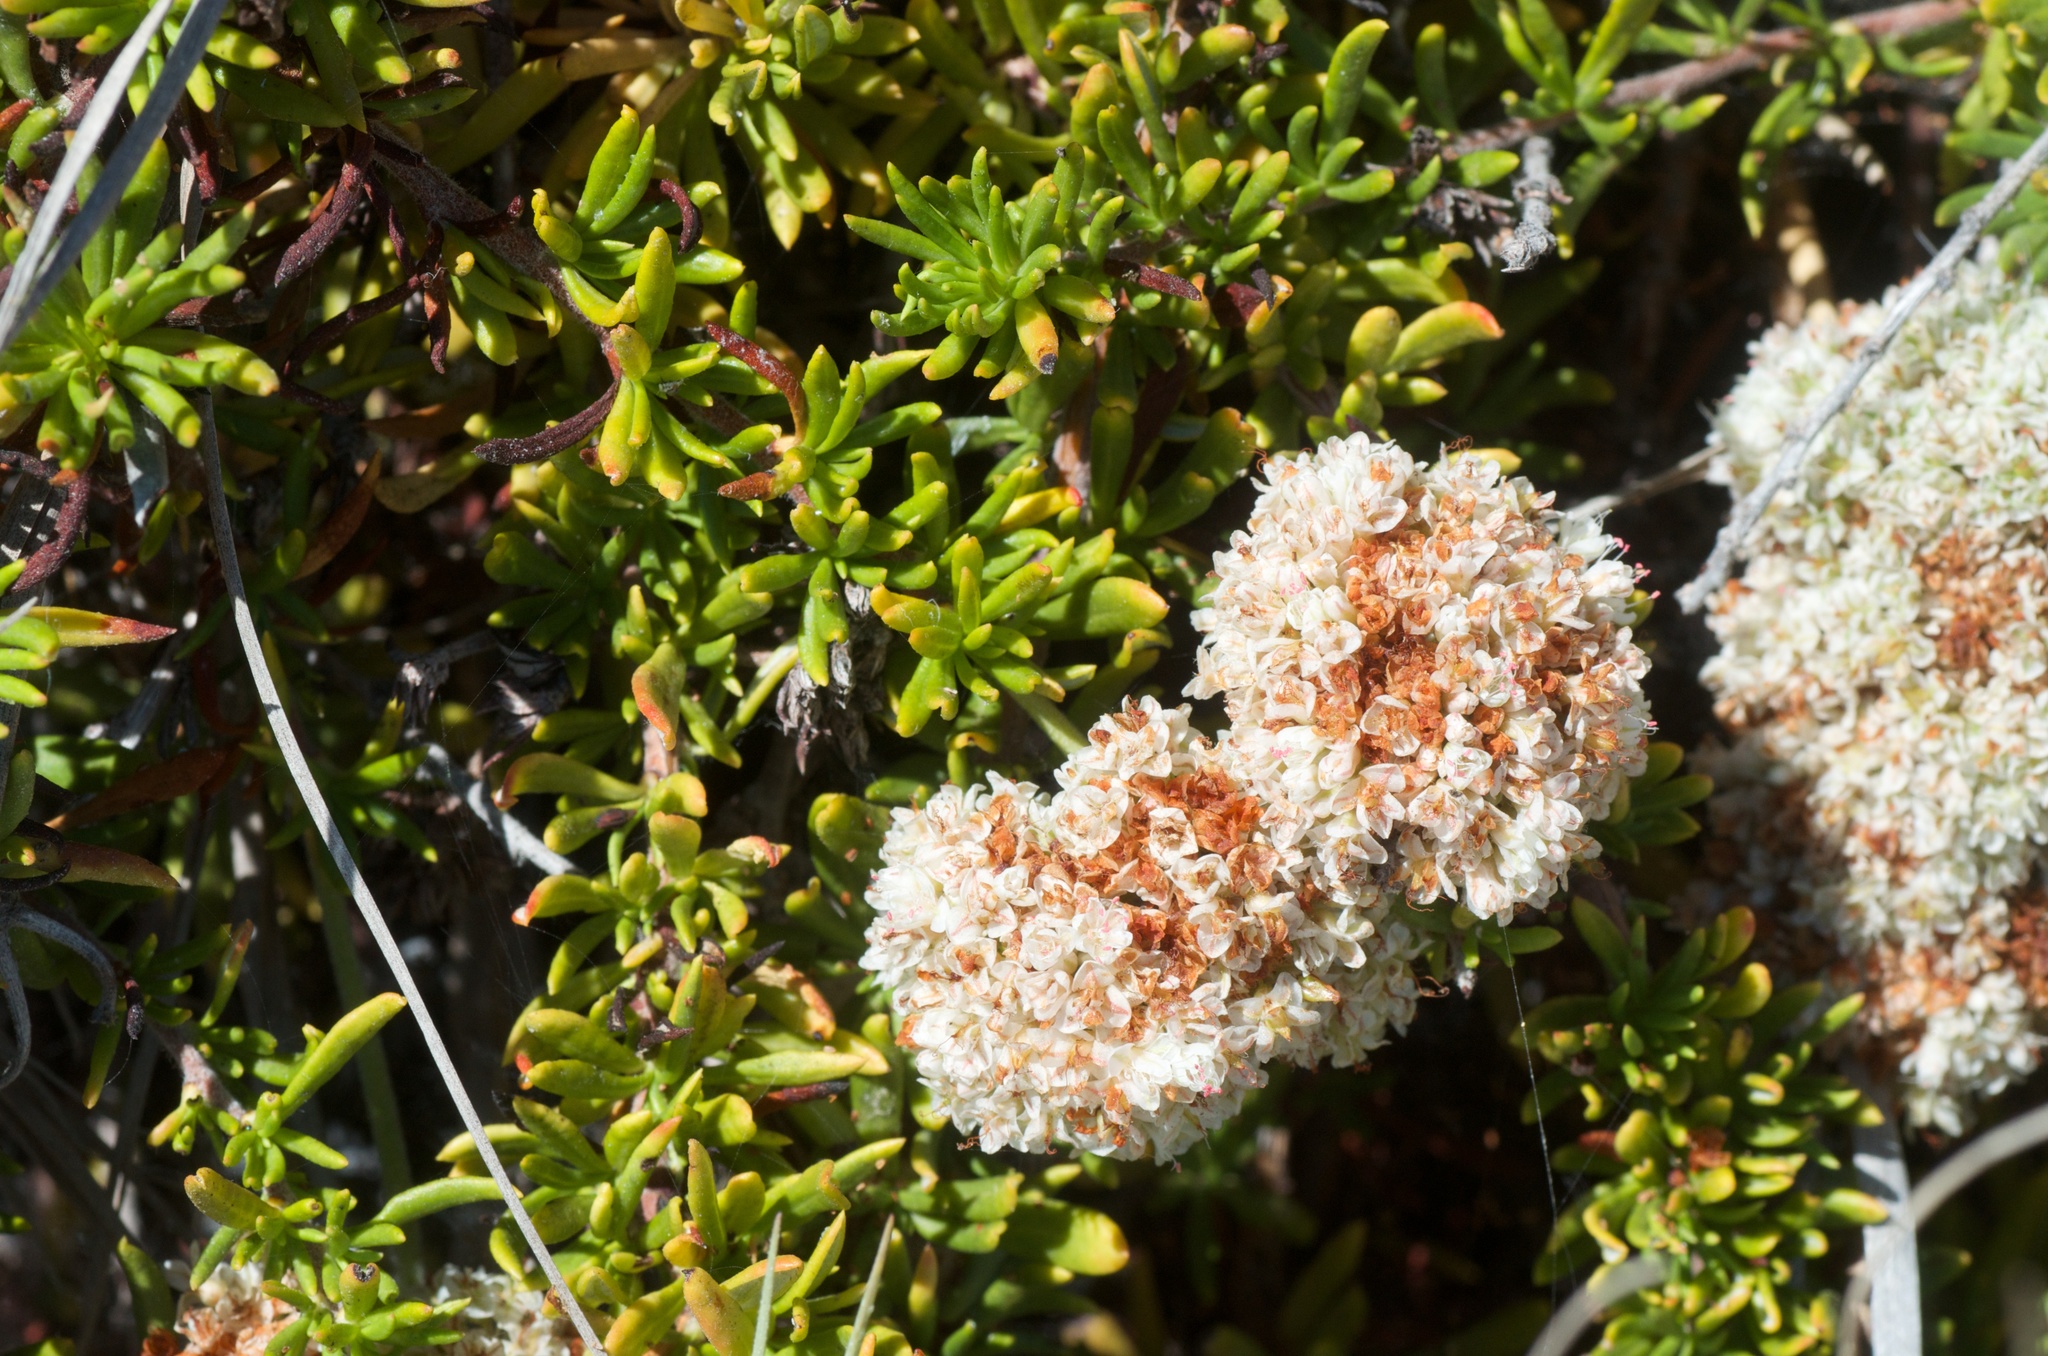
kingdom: Plantae
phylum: Tracheophyta
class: Magnoliopsida
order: Caryophyllales
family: Polygonaceae
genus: Eriogonum
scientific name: Eriogonum fasciculatum
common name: California wild buckwheat
